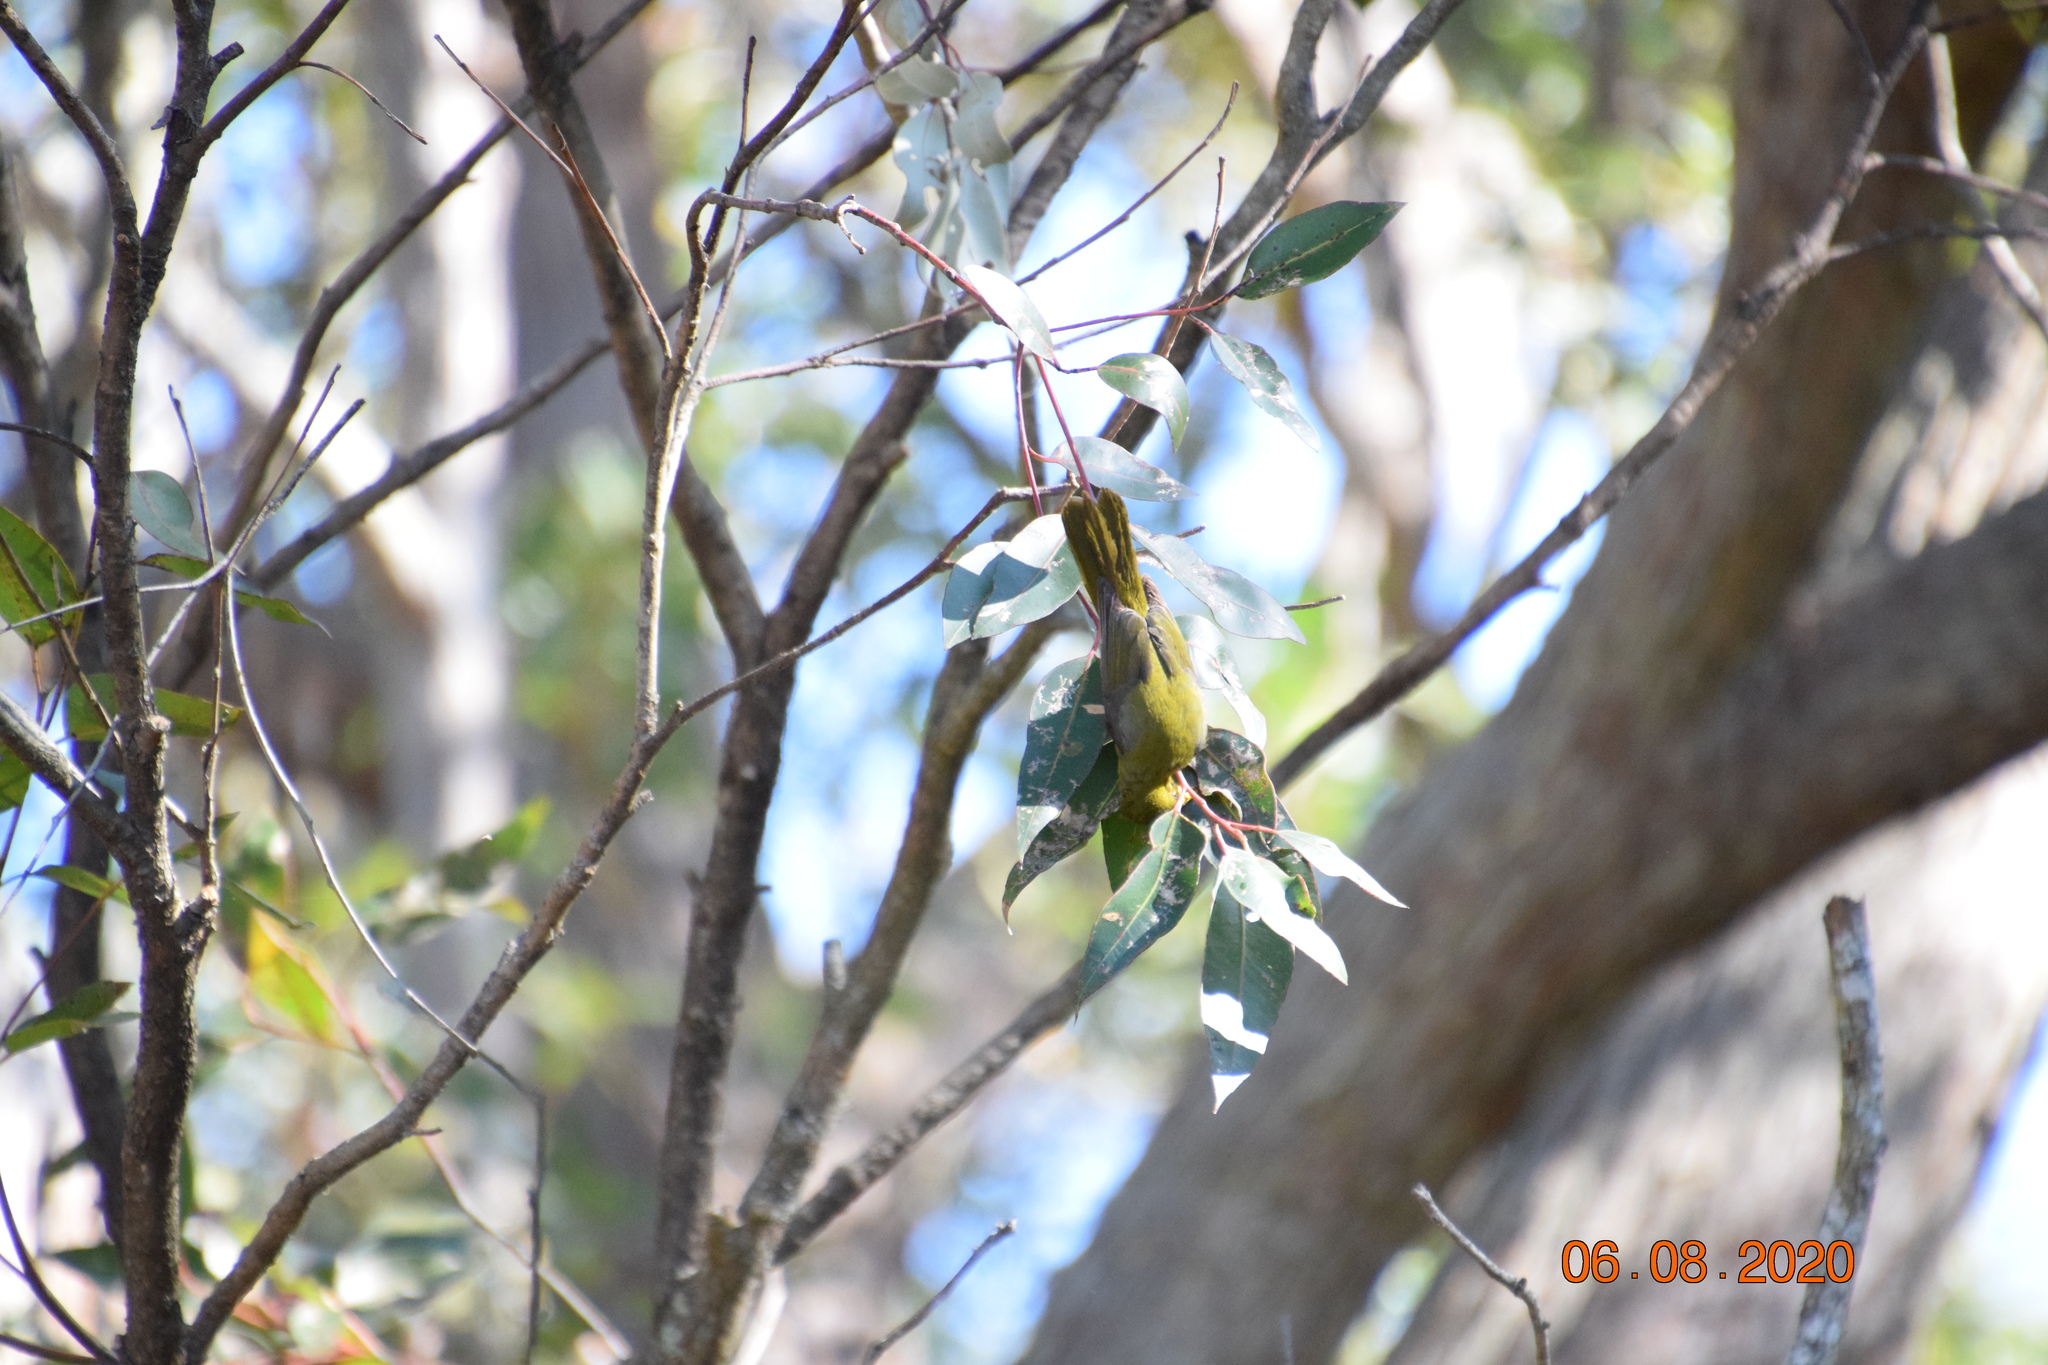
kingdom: Animalia
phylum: Chordata
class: Aves
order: Passeriformes
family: Meliphagidae
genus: Manorina
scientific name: Manorina melanophrys
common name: Bell miner
